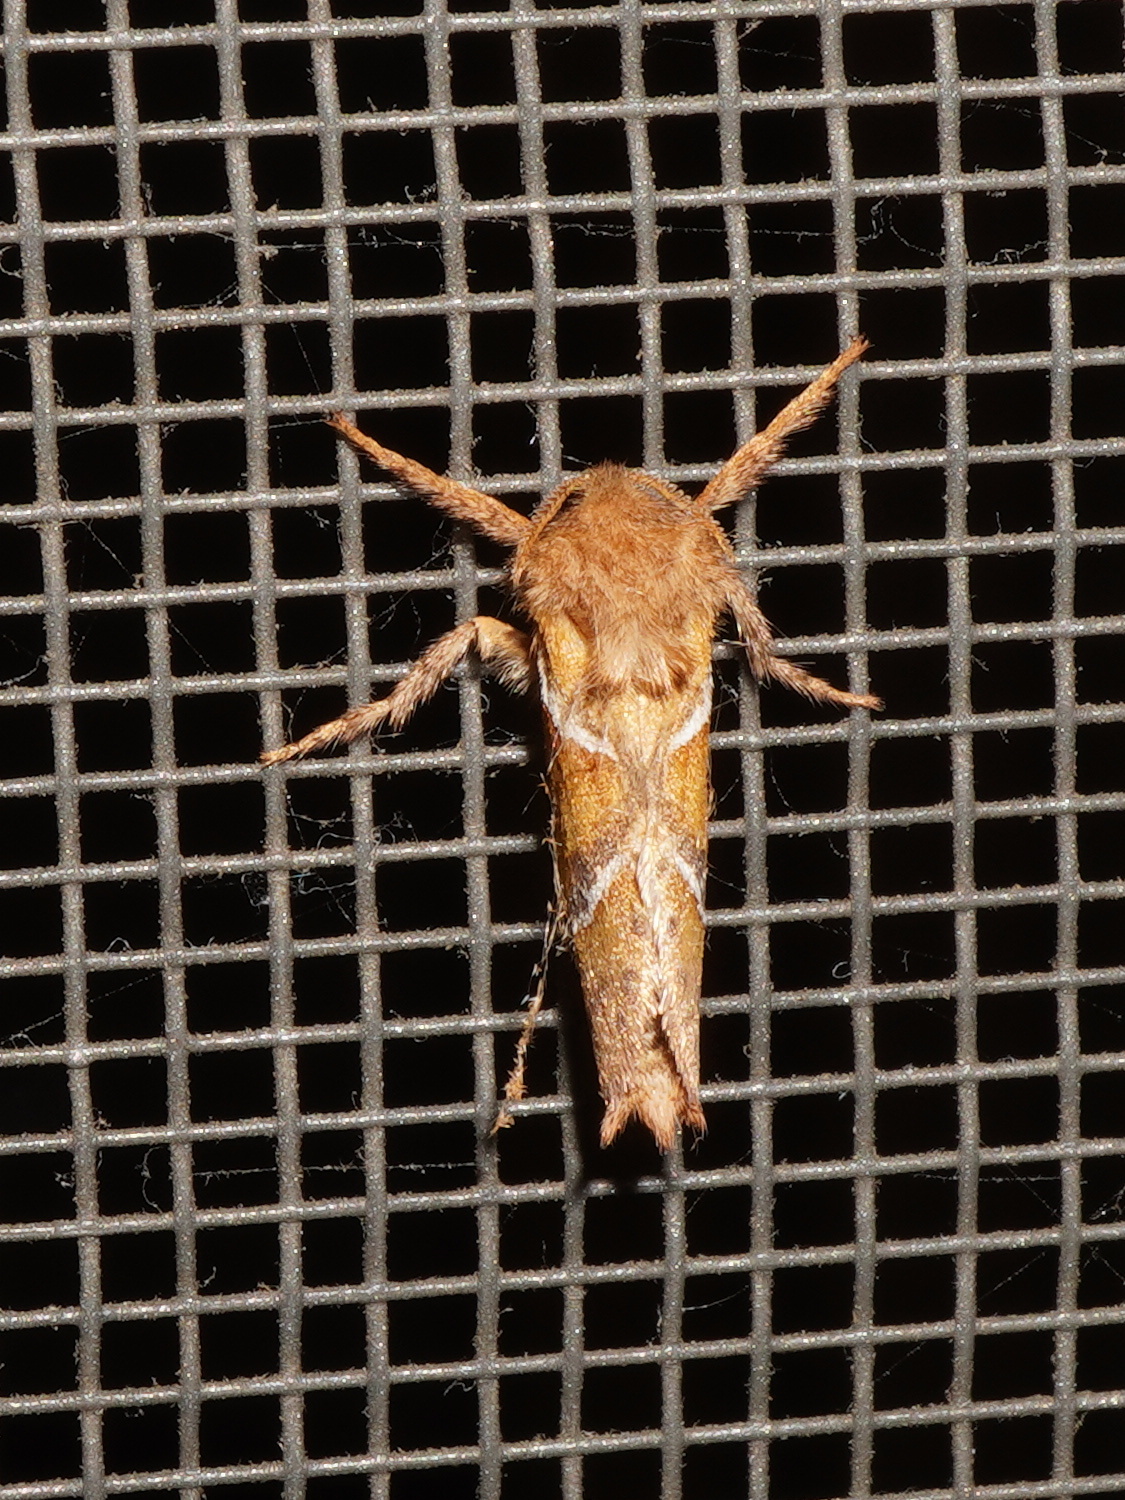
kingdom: Animalia
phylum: Arthropoda
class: Insecta
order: Lepidoptera
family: Hepialidae
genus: Triodia
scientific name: Triodia sylvina
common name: Orange swift
